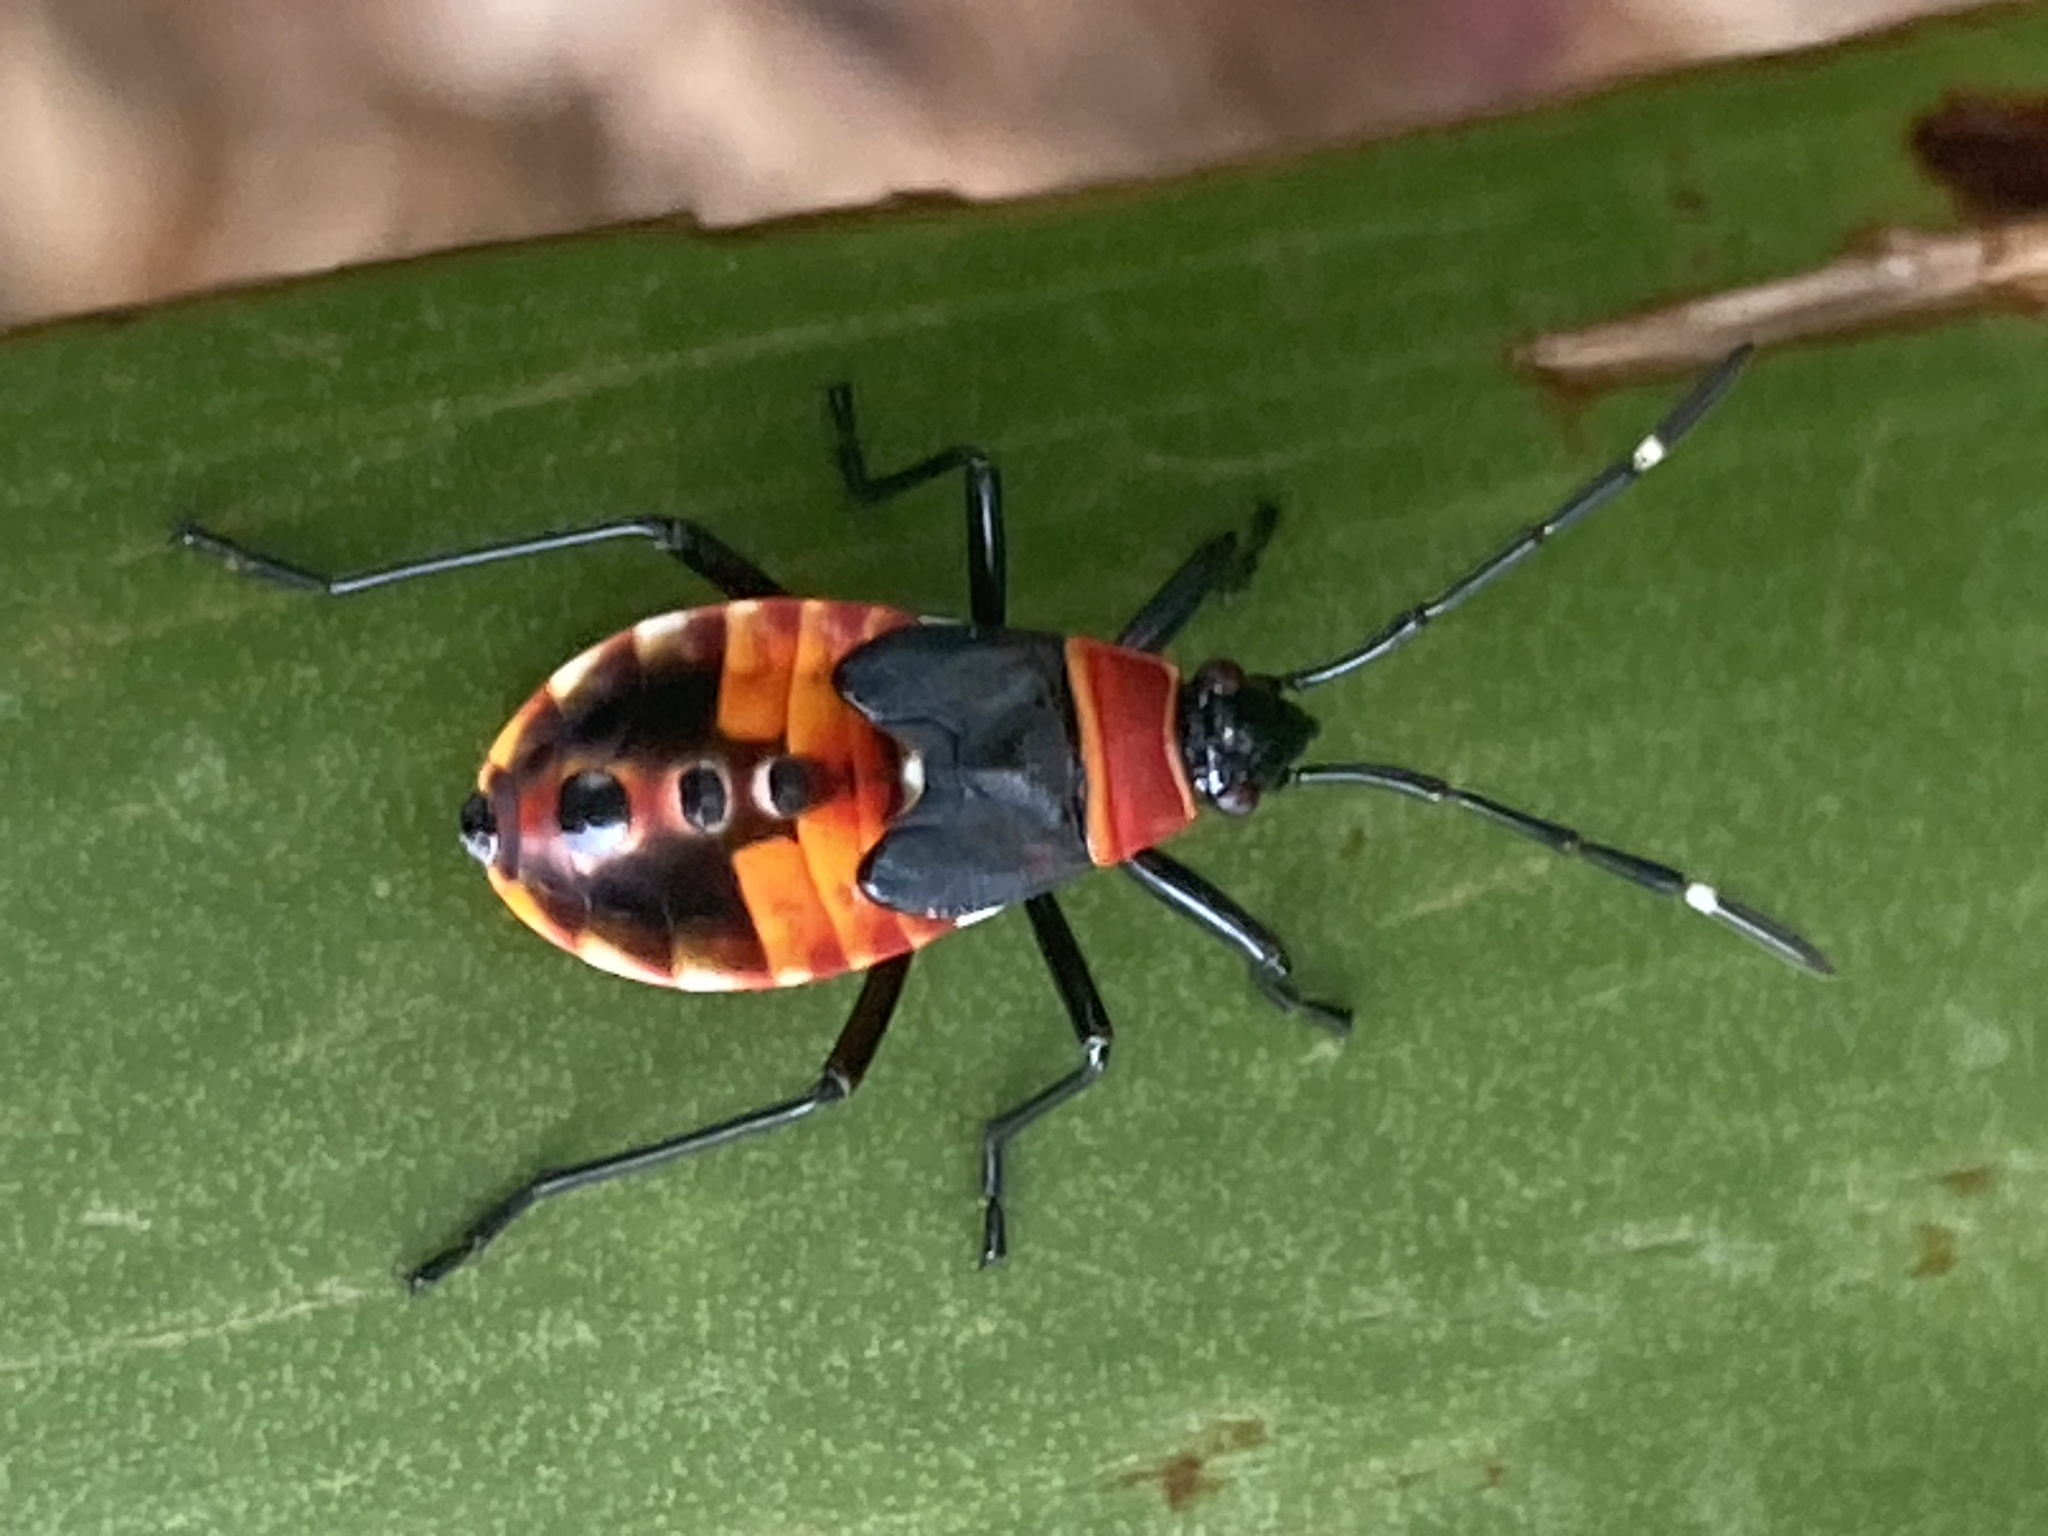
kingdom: Animalia
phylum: Arthropoda
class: Insecta
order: Hemiptera
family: Pyrrhocoridae
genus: Dindymus
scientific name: Dindymus
